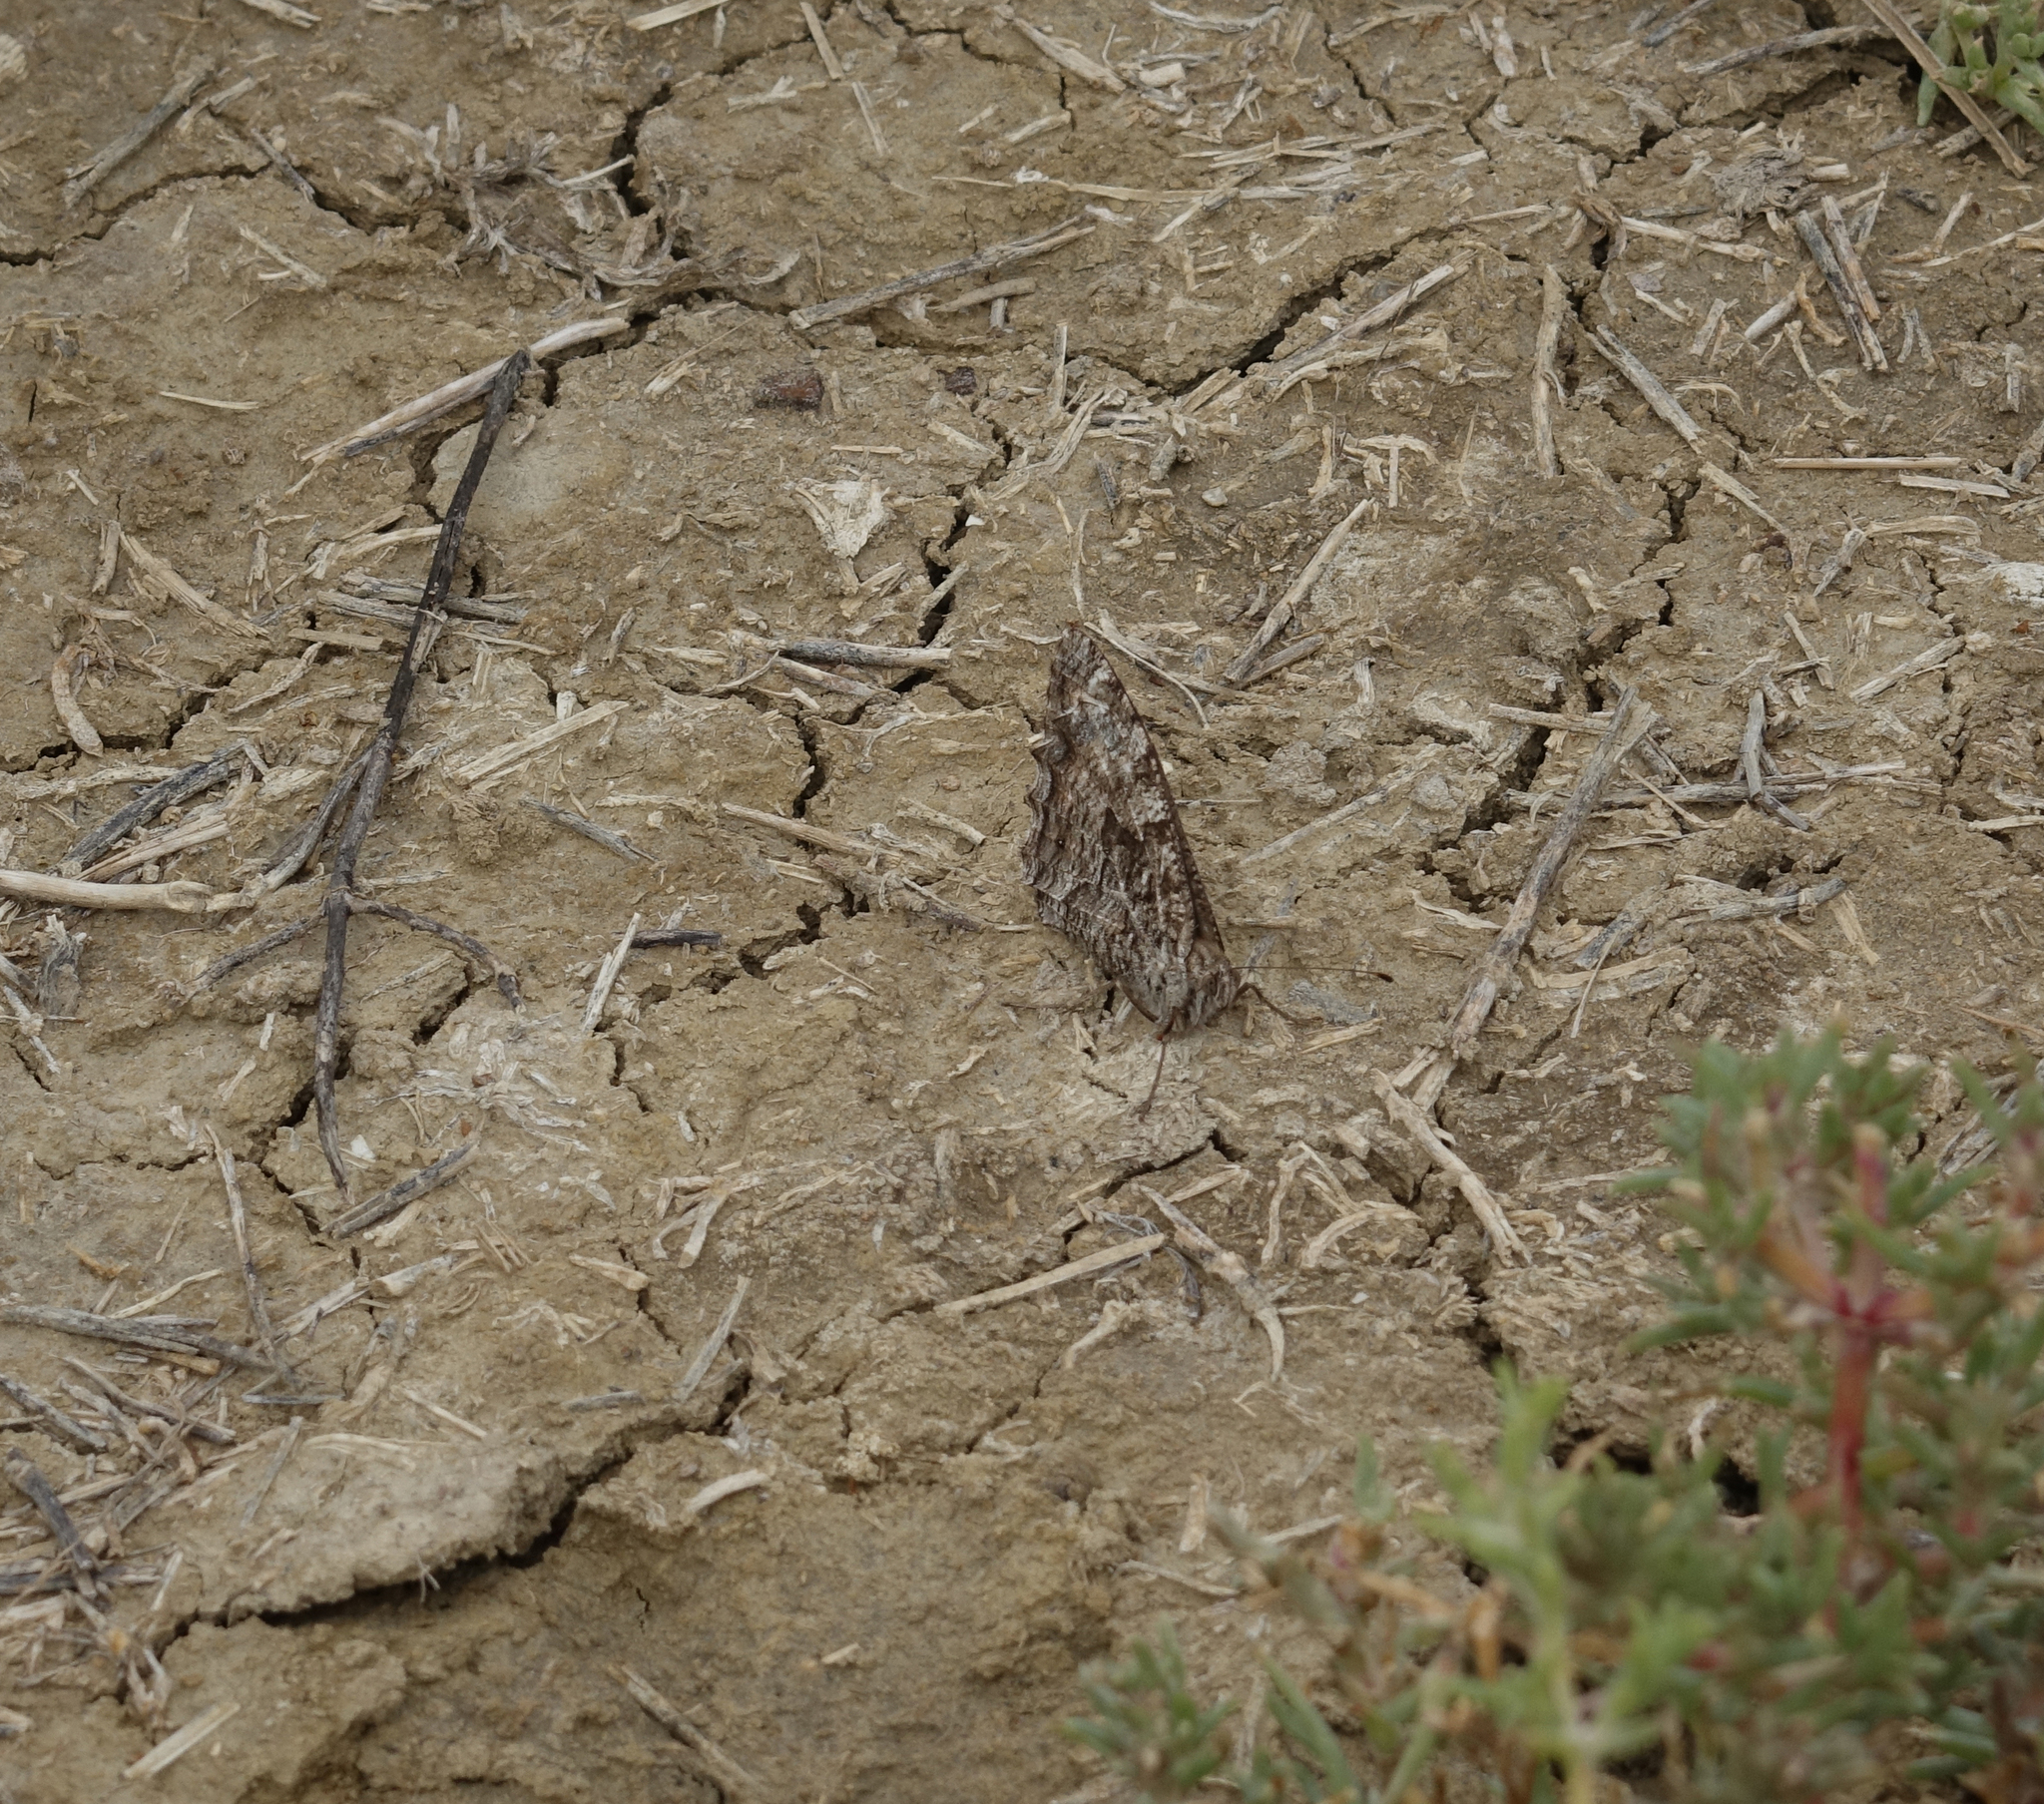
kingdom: Animalia
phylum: Arthropoda
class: Insecta
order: Lepidoptera
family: Nymphalidae
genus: Hipparchia
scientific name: Hipparchia pellucida
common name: Lesbos grayling
